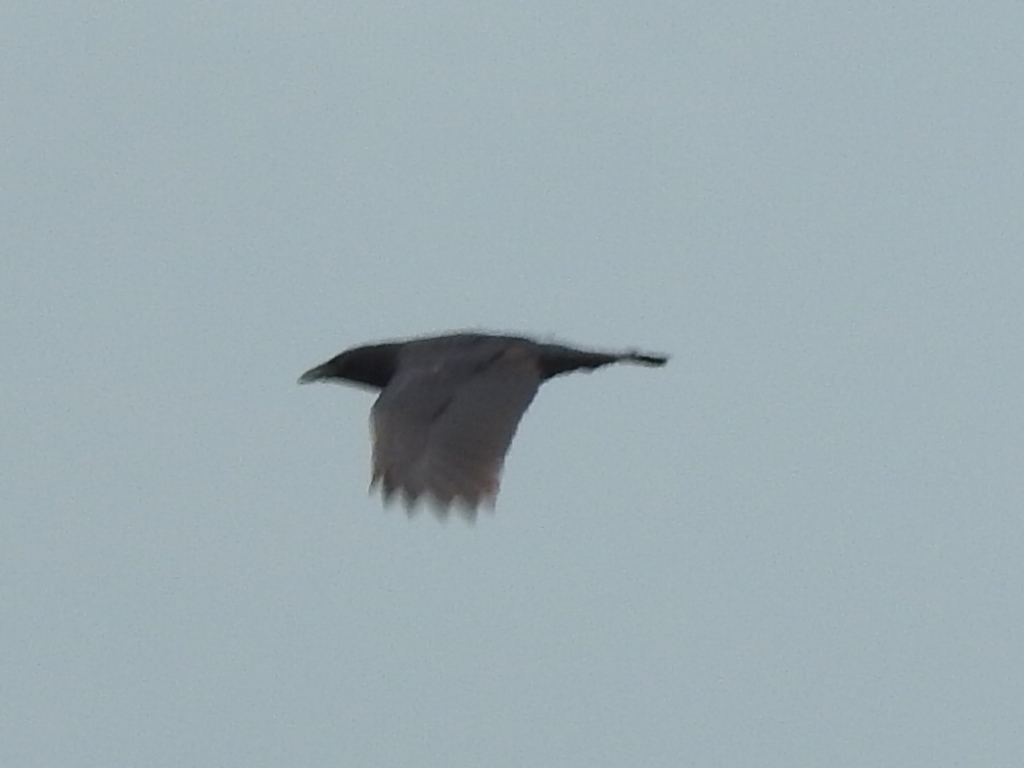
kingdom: Animalia
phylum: Chordata
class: Aves
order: Passeriformes
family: Corvidae
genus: Corvus
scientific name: Corvus brachyrhynchos
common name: American crow
